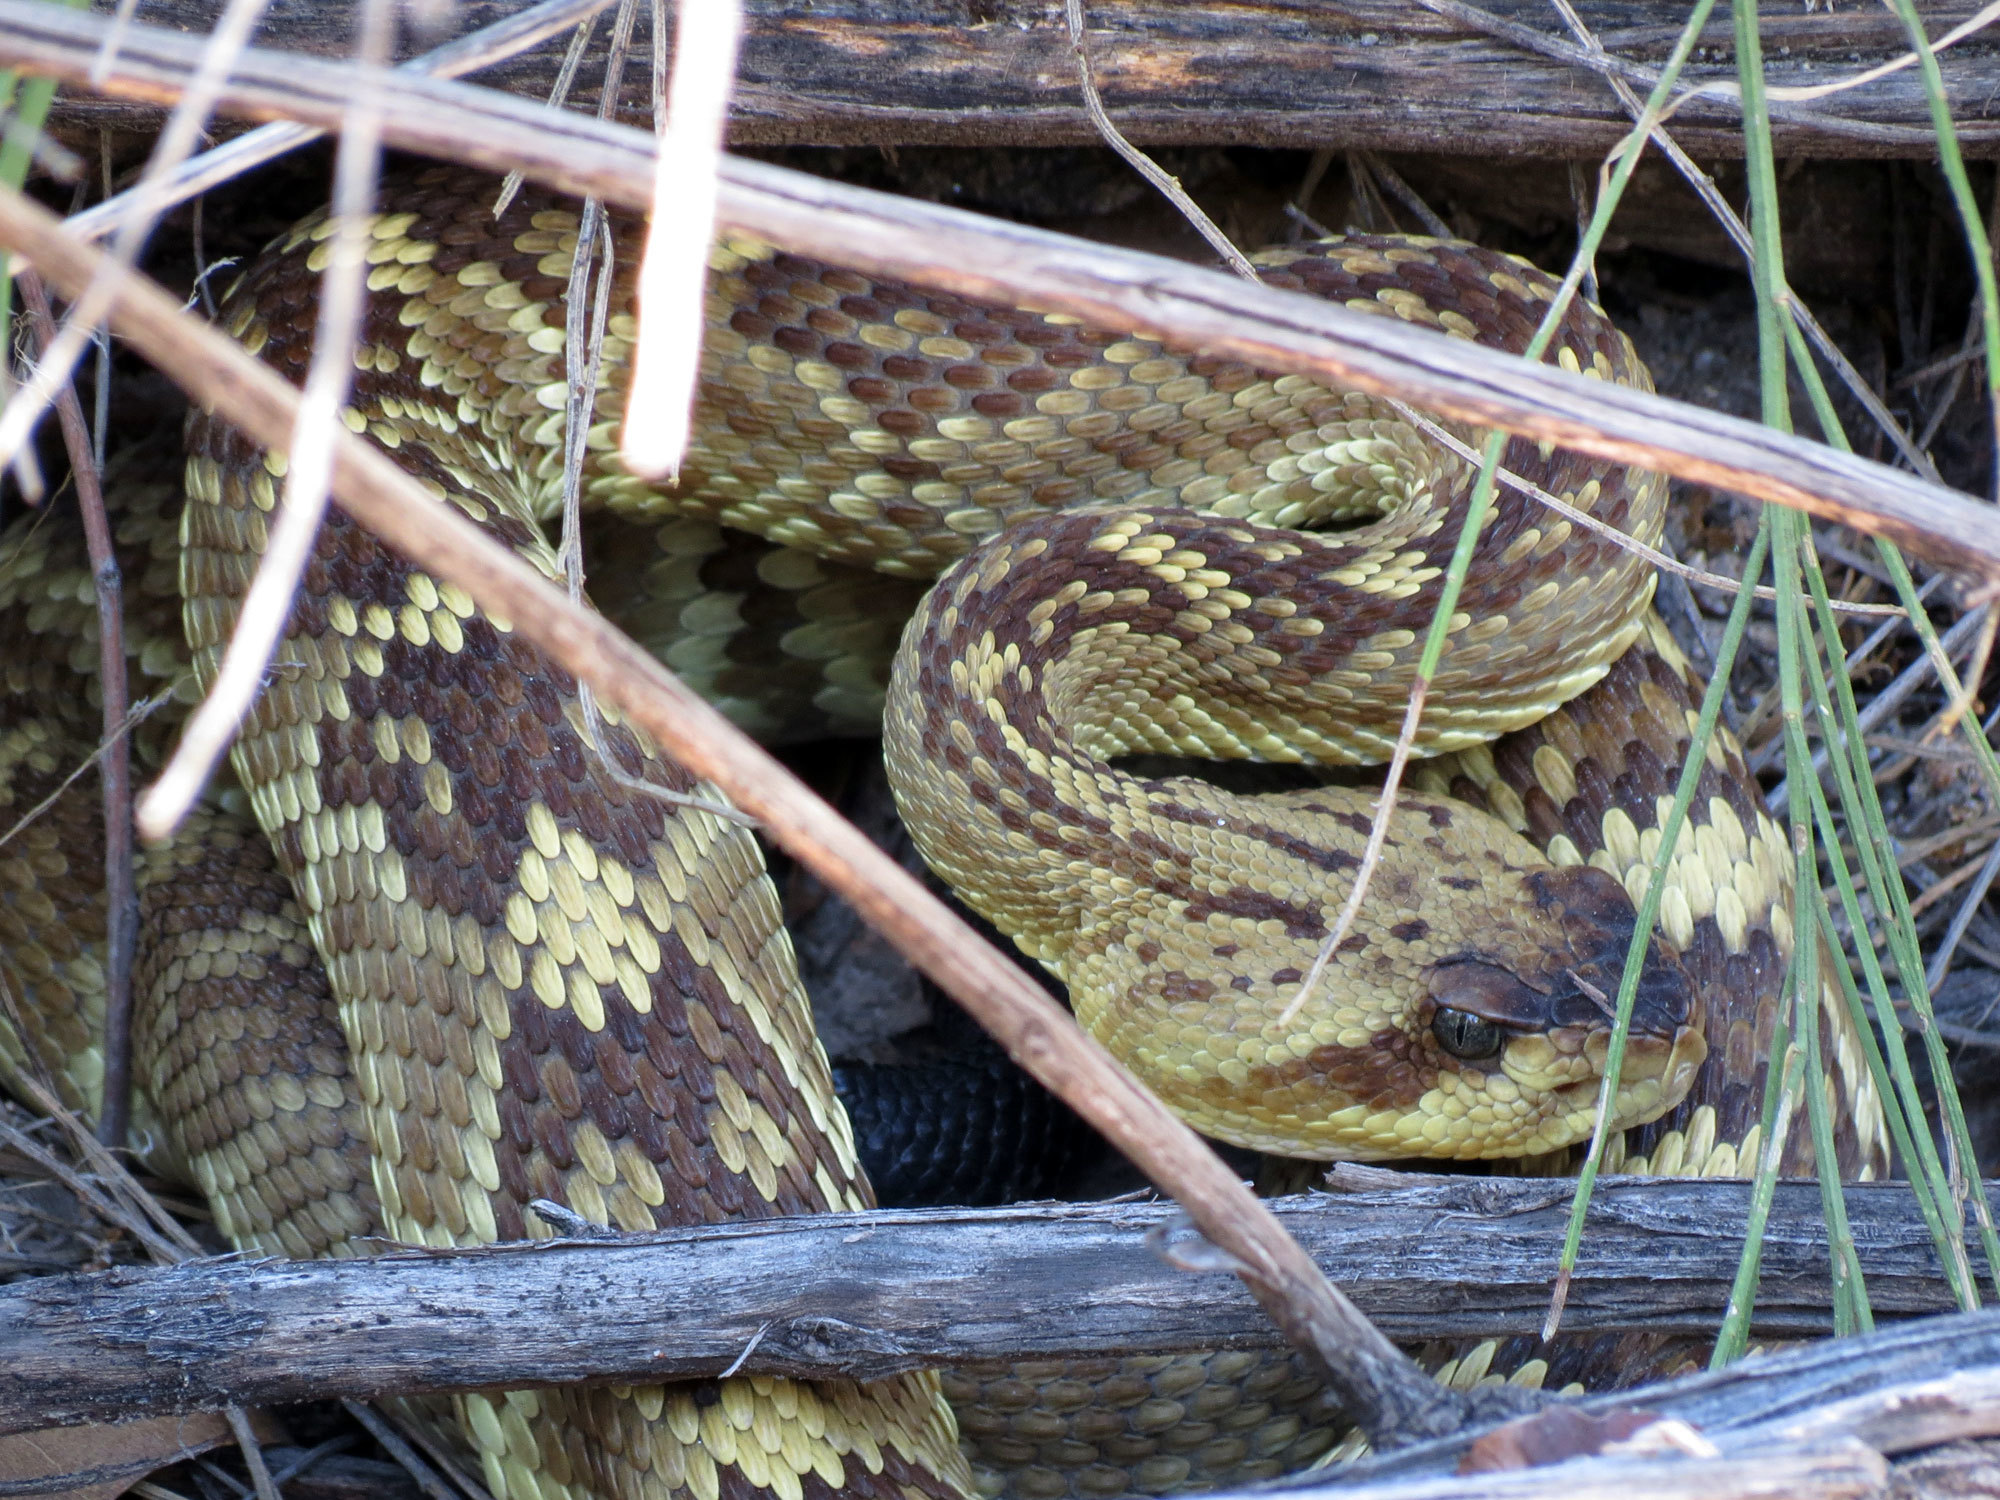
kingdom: Animalia
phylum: Chordata
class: Squamata
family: Viperidae
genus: Crotalus
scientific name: Crotalus molossus
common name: Black tailed rattlesnake
